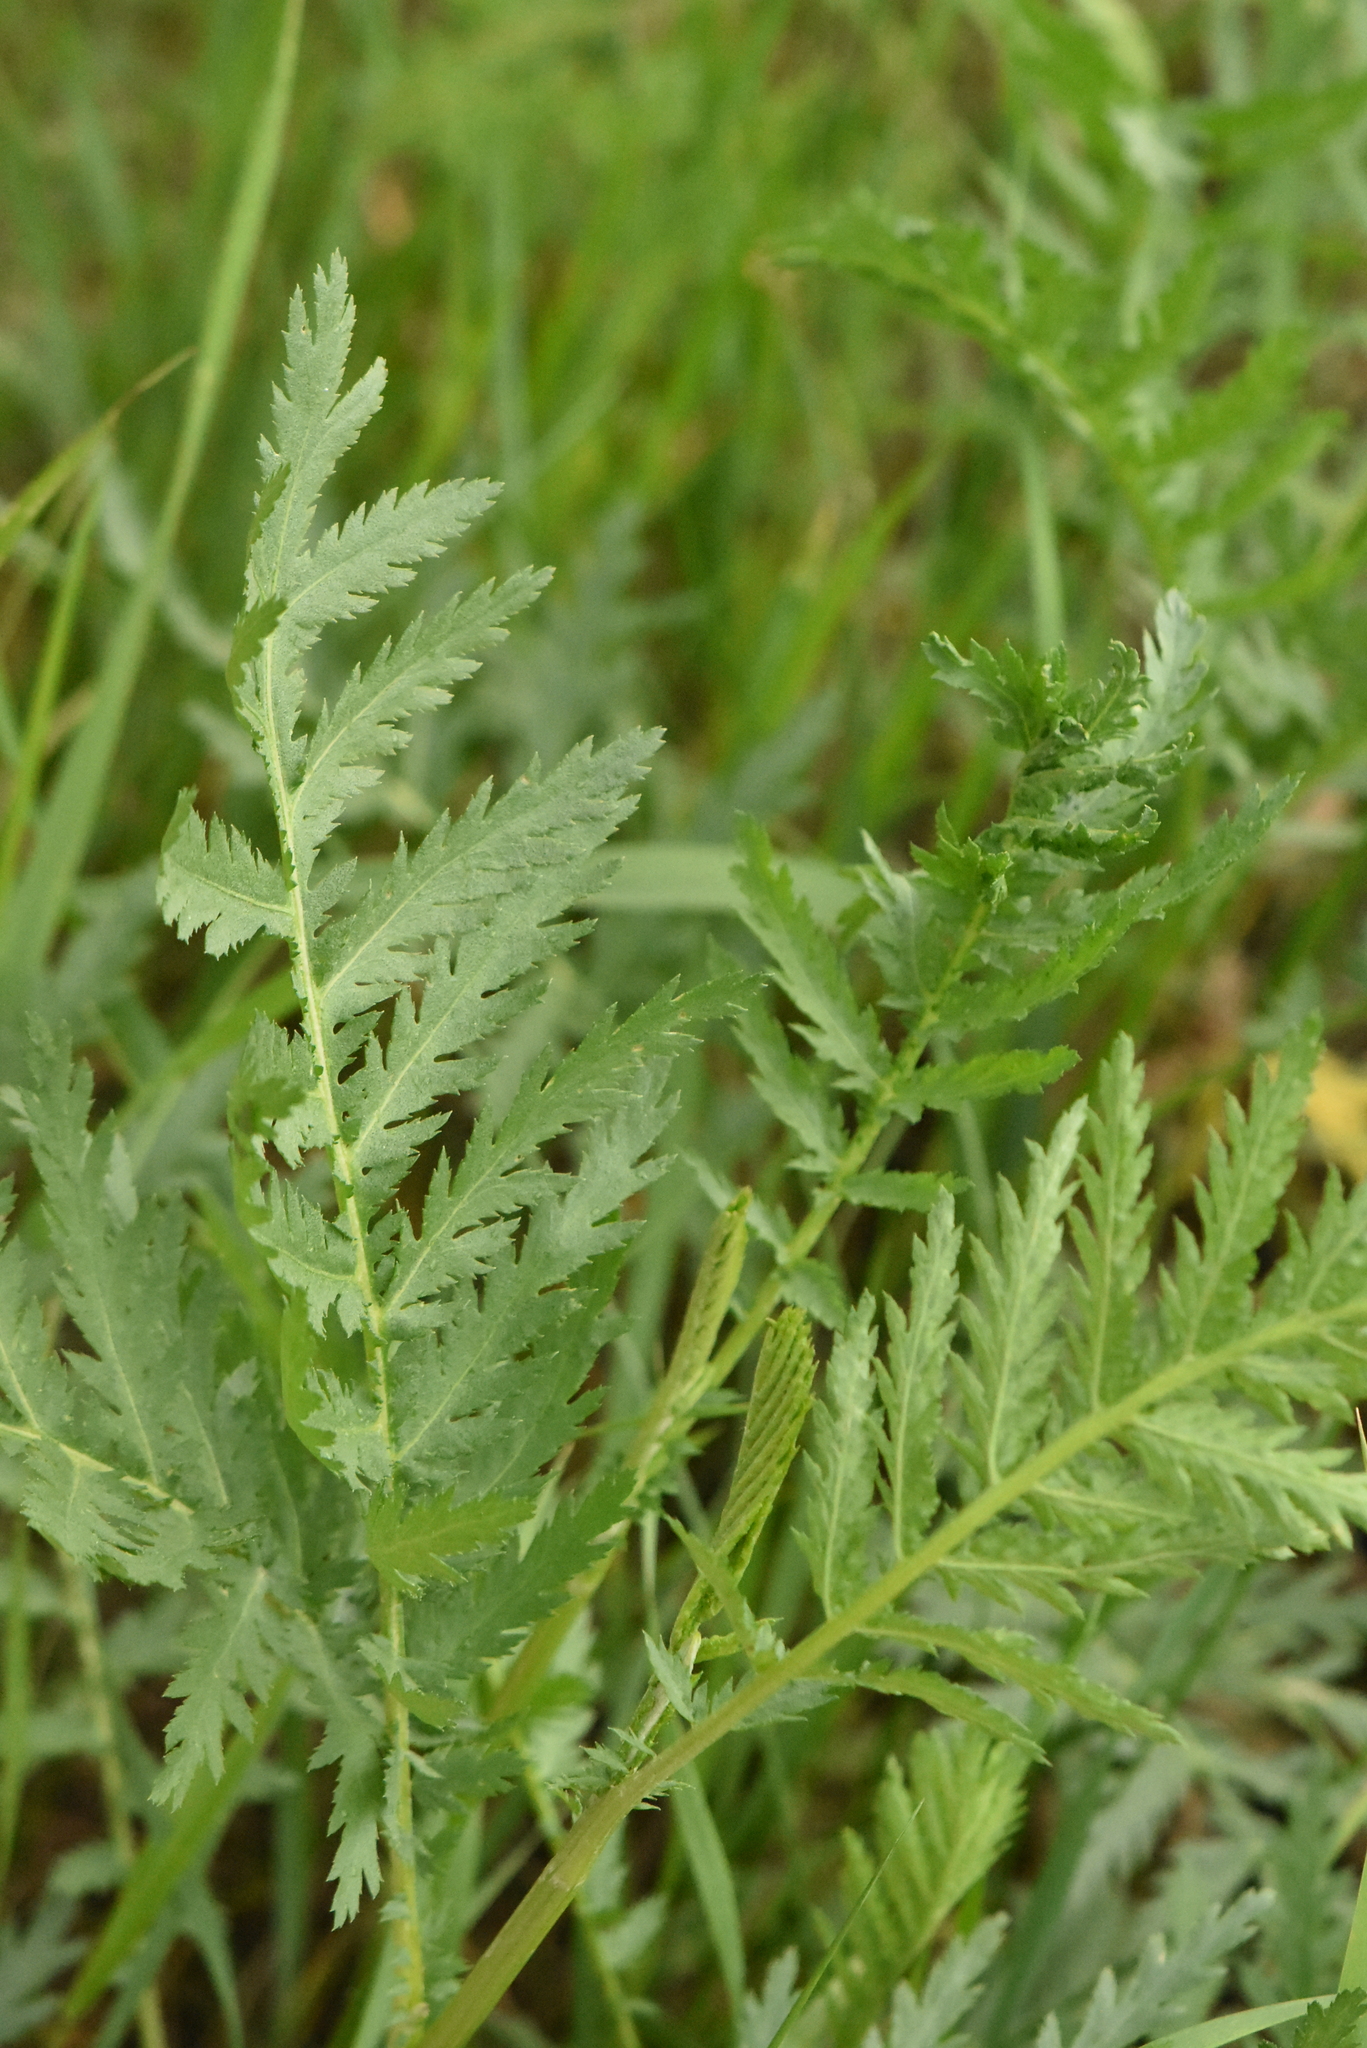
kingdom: Plantae
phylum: Tracheophyta
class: Magnoliopsida
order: Asterales
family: Asteraceae
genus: Tanacetum
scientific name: Tanacetum vulgare
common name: Common tansy
